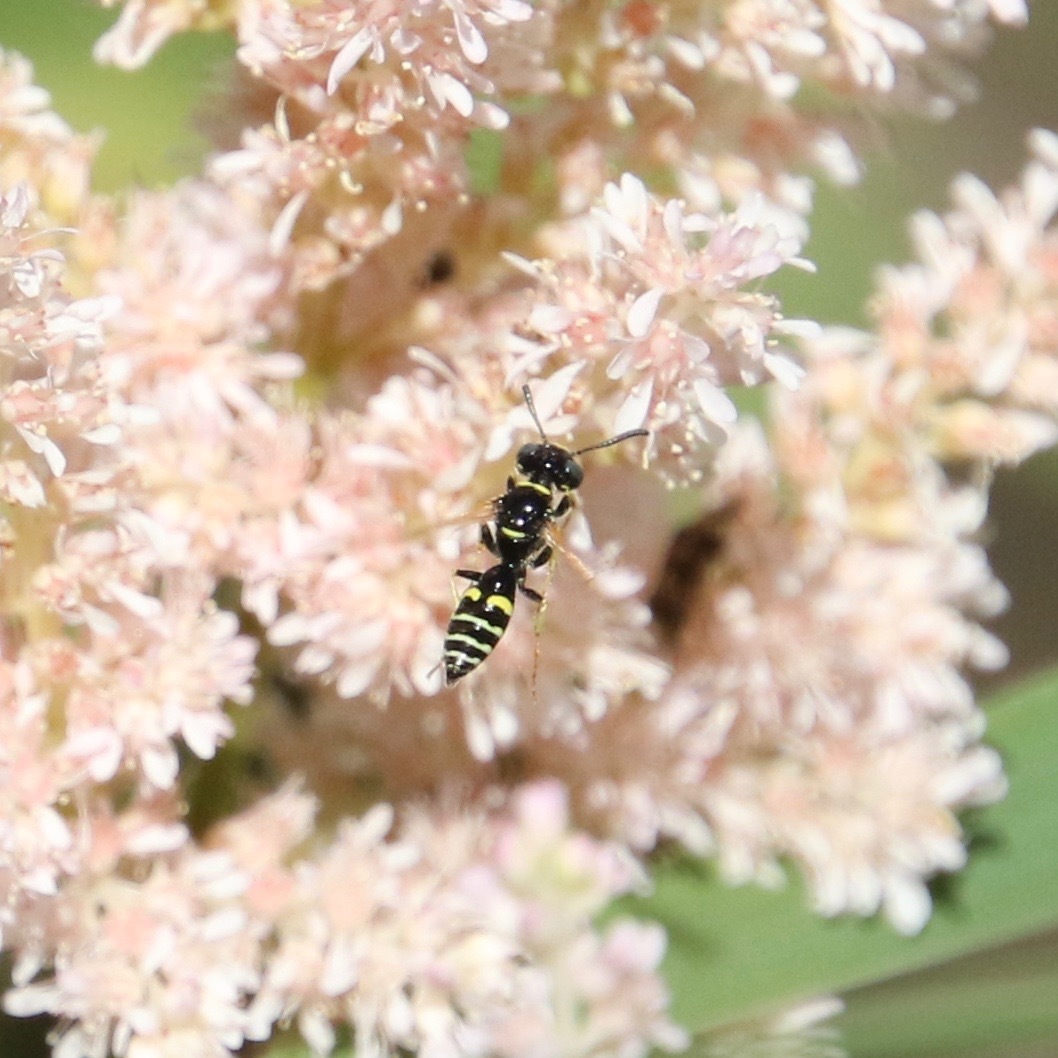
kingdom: Animalia
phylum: Arthropoda
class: Insecta
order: Hymenoptera
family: Crabronidae
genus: Philanthus
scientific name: Philanthus bilunatus
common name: Two moons beewolf
